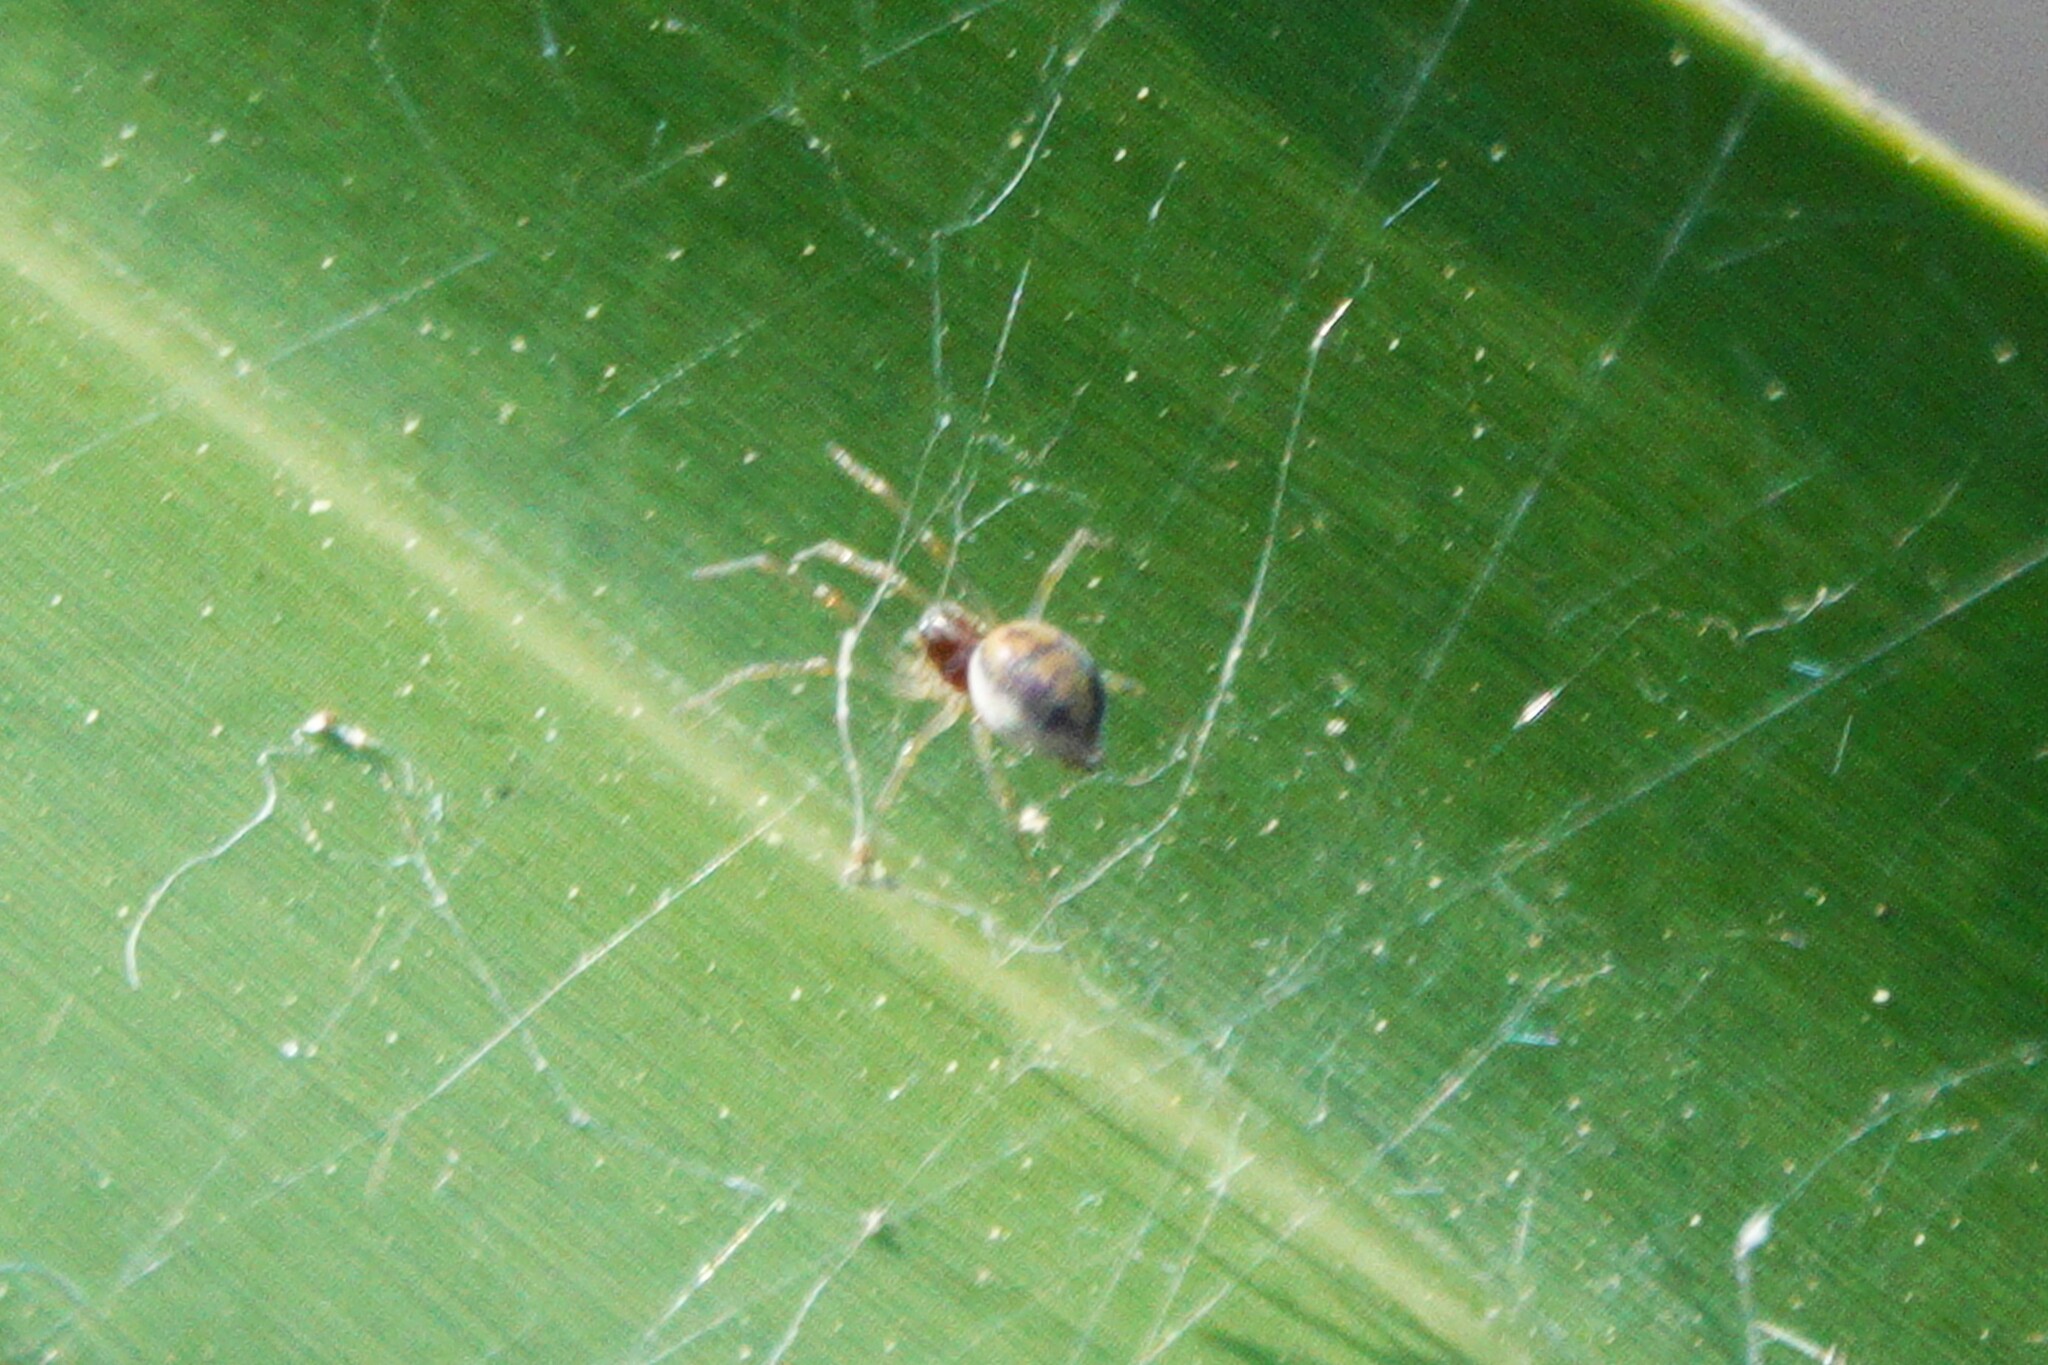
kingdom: Animalia
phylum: Arthropoda
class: Arachnida
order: Araneae
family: Dictynidae
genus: Emblyna
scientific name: Emblyna florens
